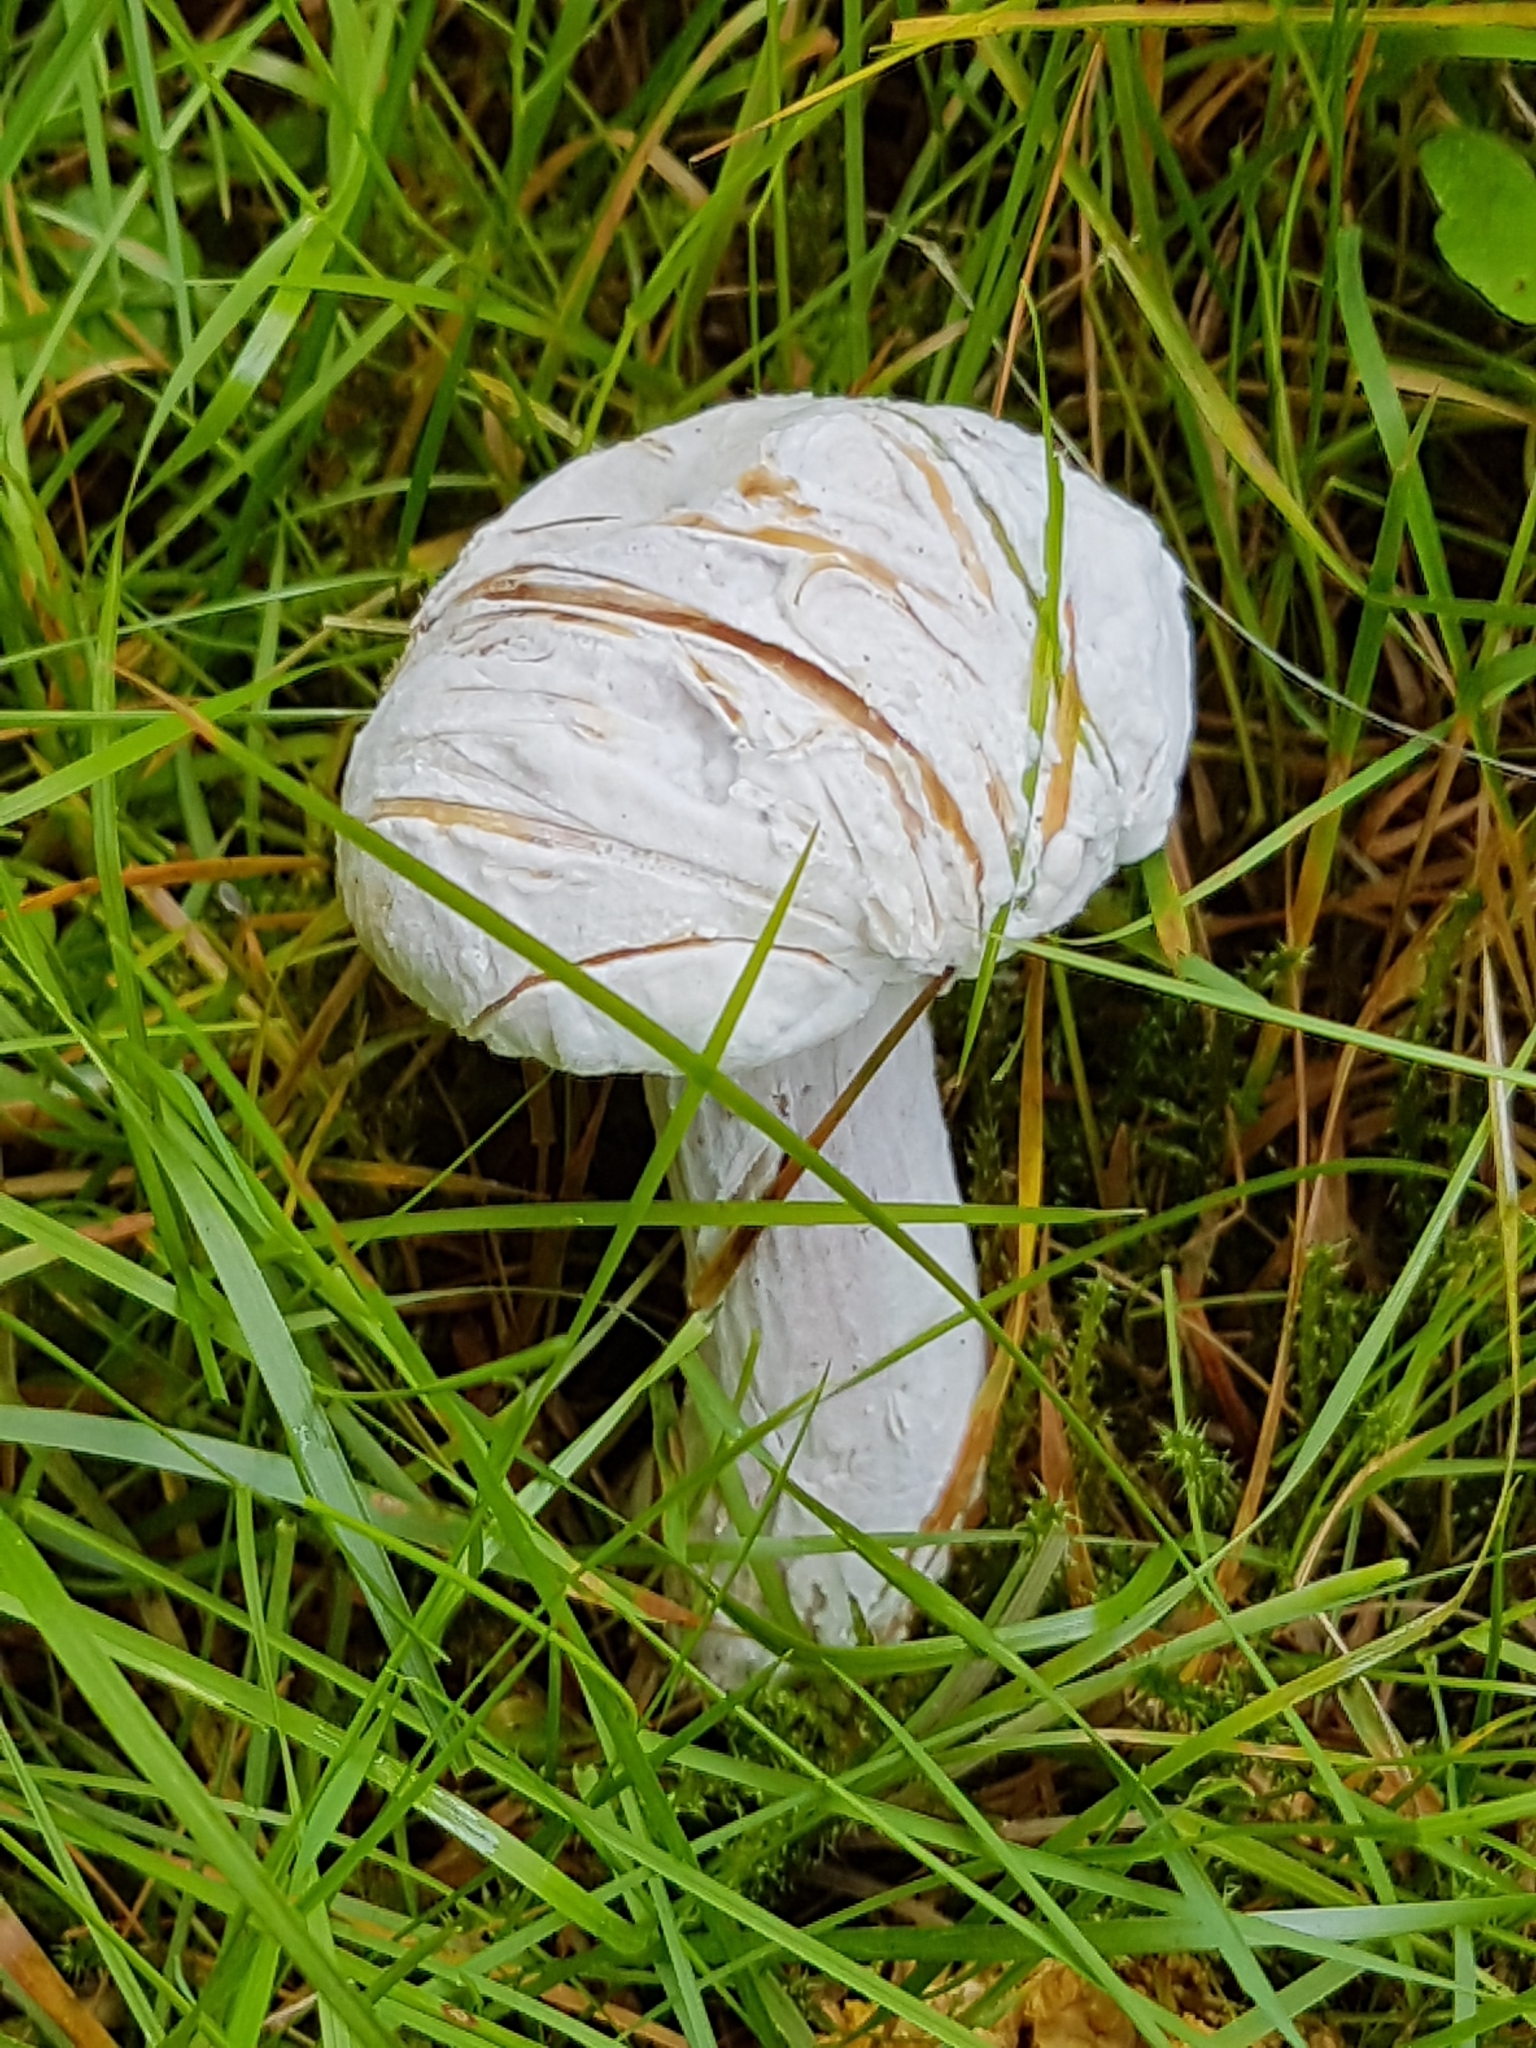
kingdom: Fungi
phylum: Ascomycota
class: Sordariomycetes
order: Hypocreales
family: Hypocreaceae
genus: Hypomyces
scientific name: Hypomyces chrysospermus
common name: Bolete mould
